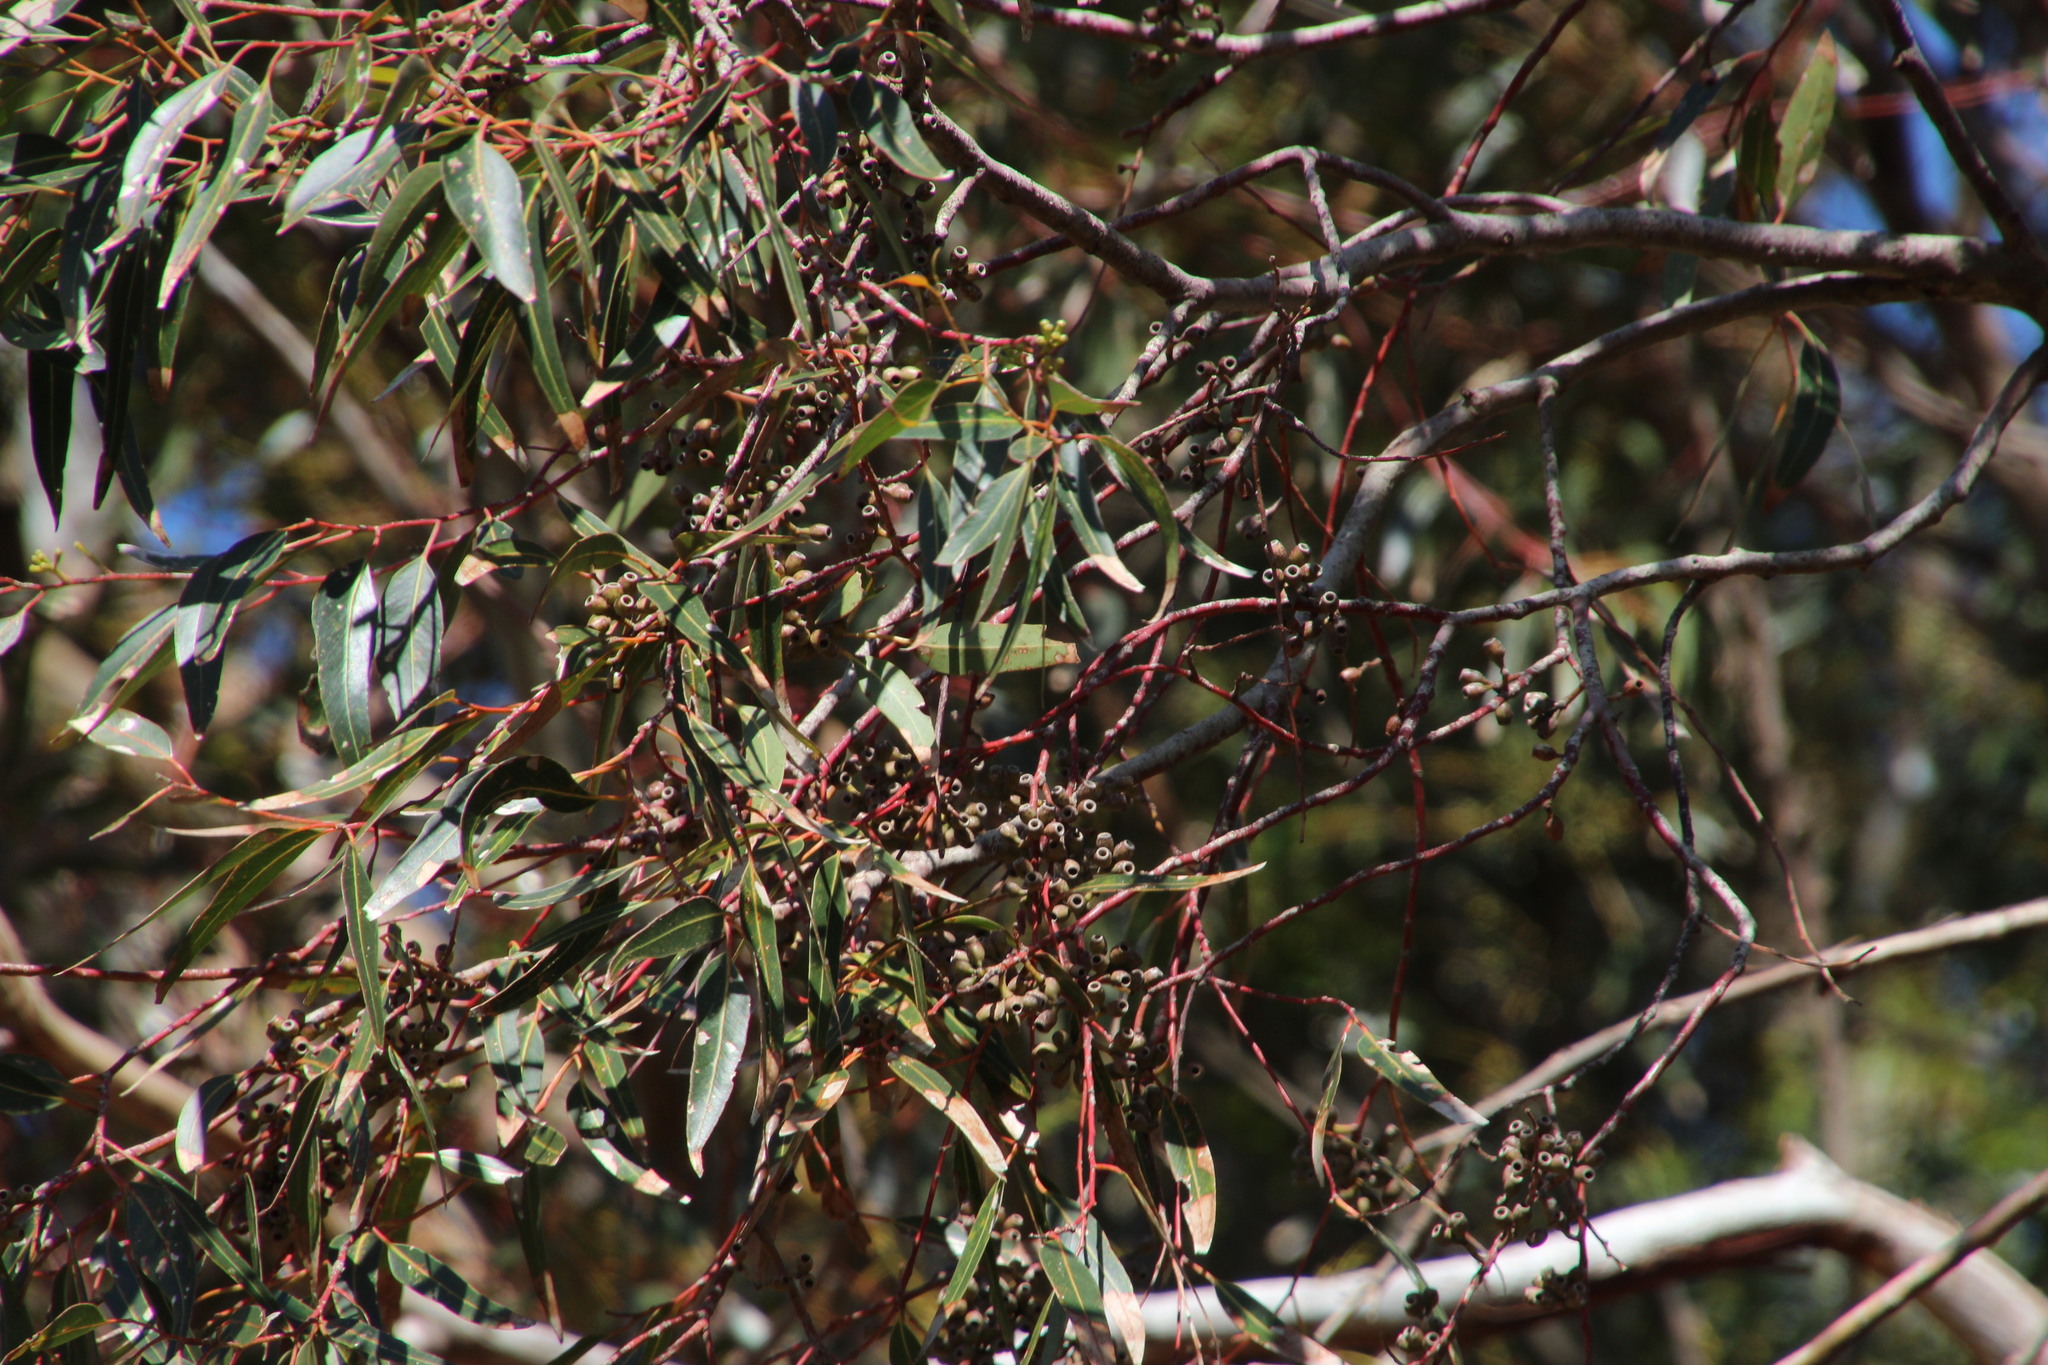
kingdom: Plantae
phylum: Tracheophyta
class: Magnoliopsida
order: Myrtales
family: Myrtaceae
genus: Eucalyptus
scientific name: Eucalyptus cladocalyx
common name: Sugargum
